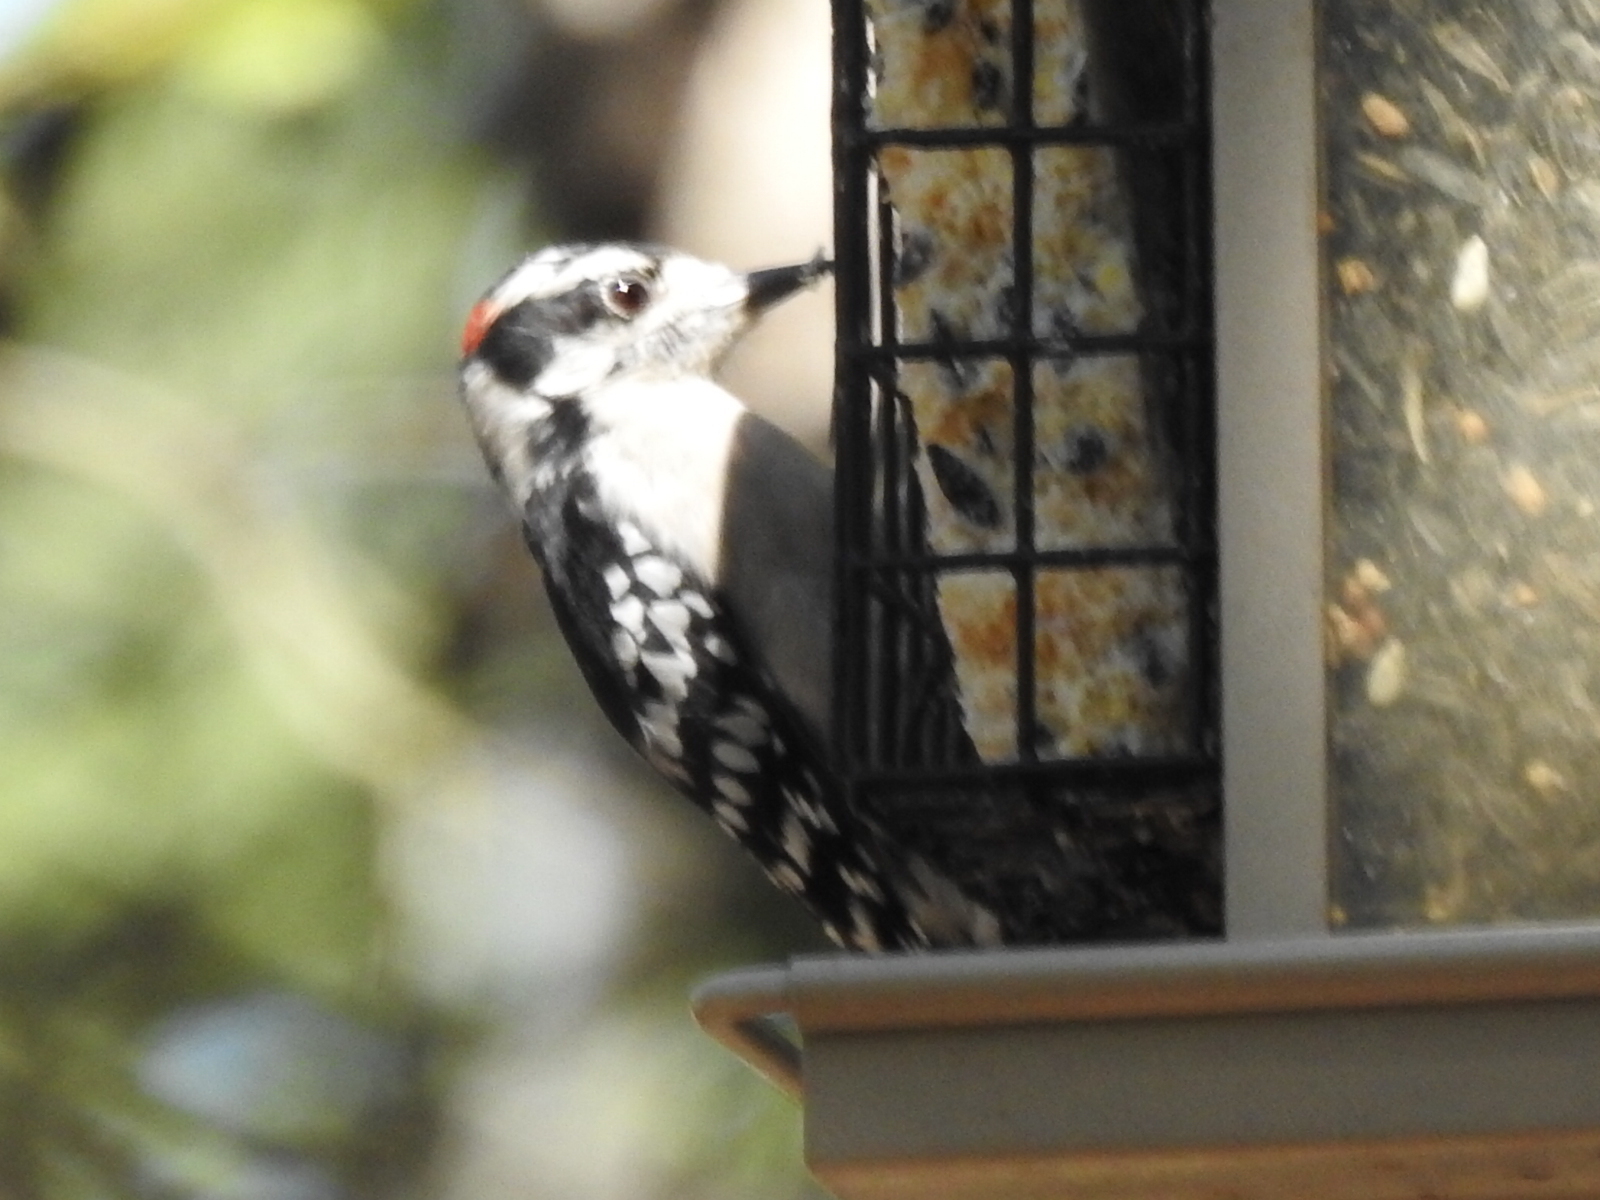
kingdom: Animalia
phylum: Chordata
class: Aves
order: Piciformes
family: Picidae
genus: Dryobates
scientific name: Dryobates pubescens
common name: Downy woodpecker
